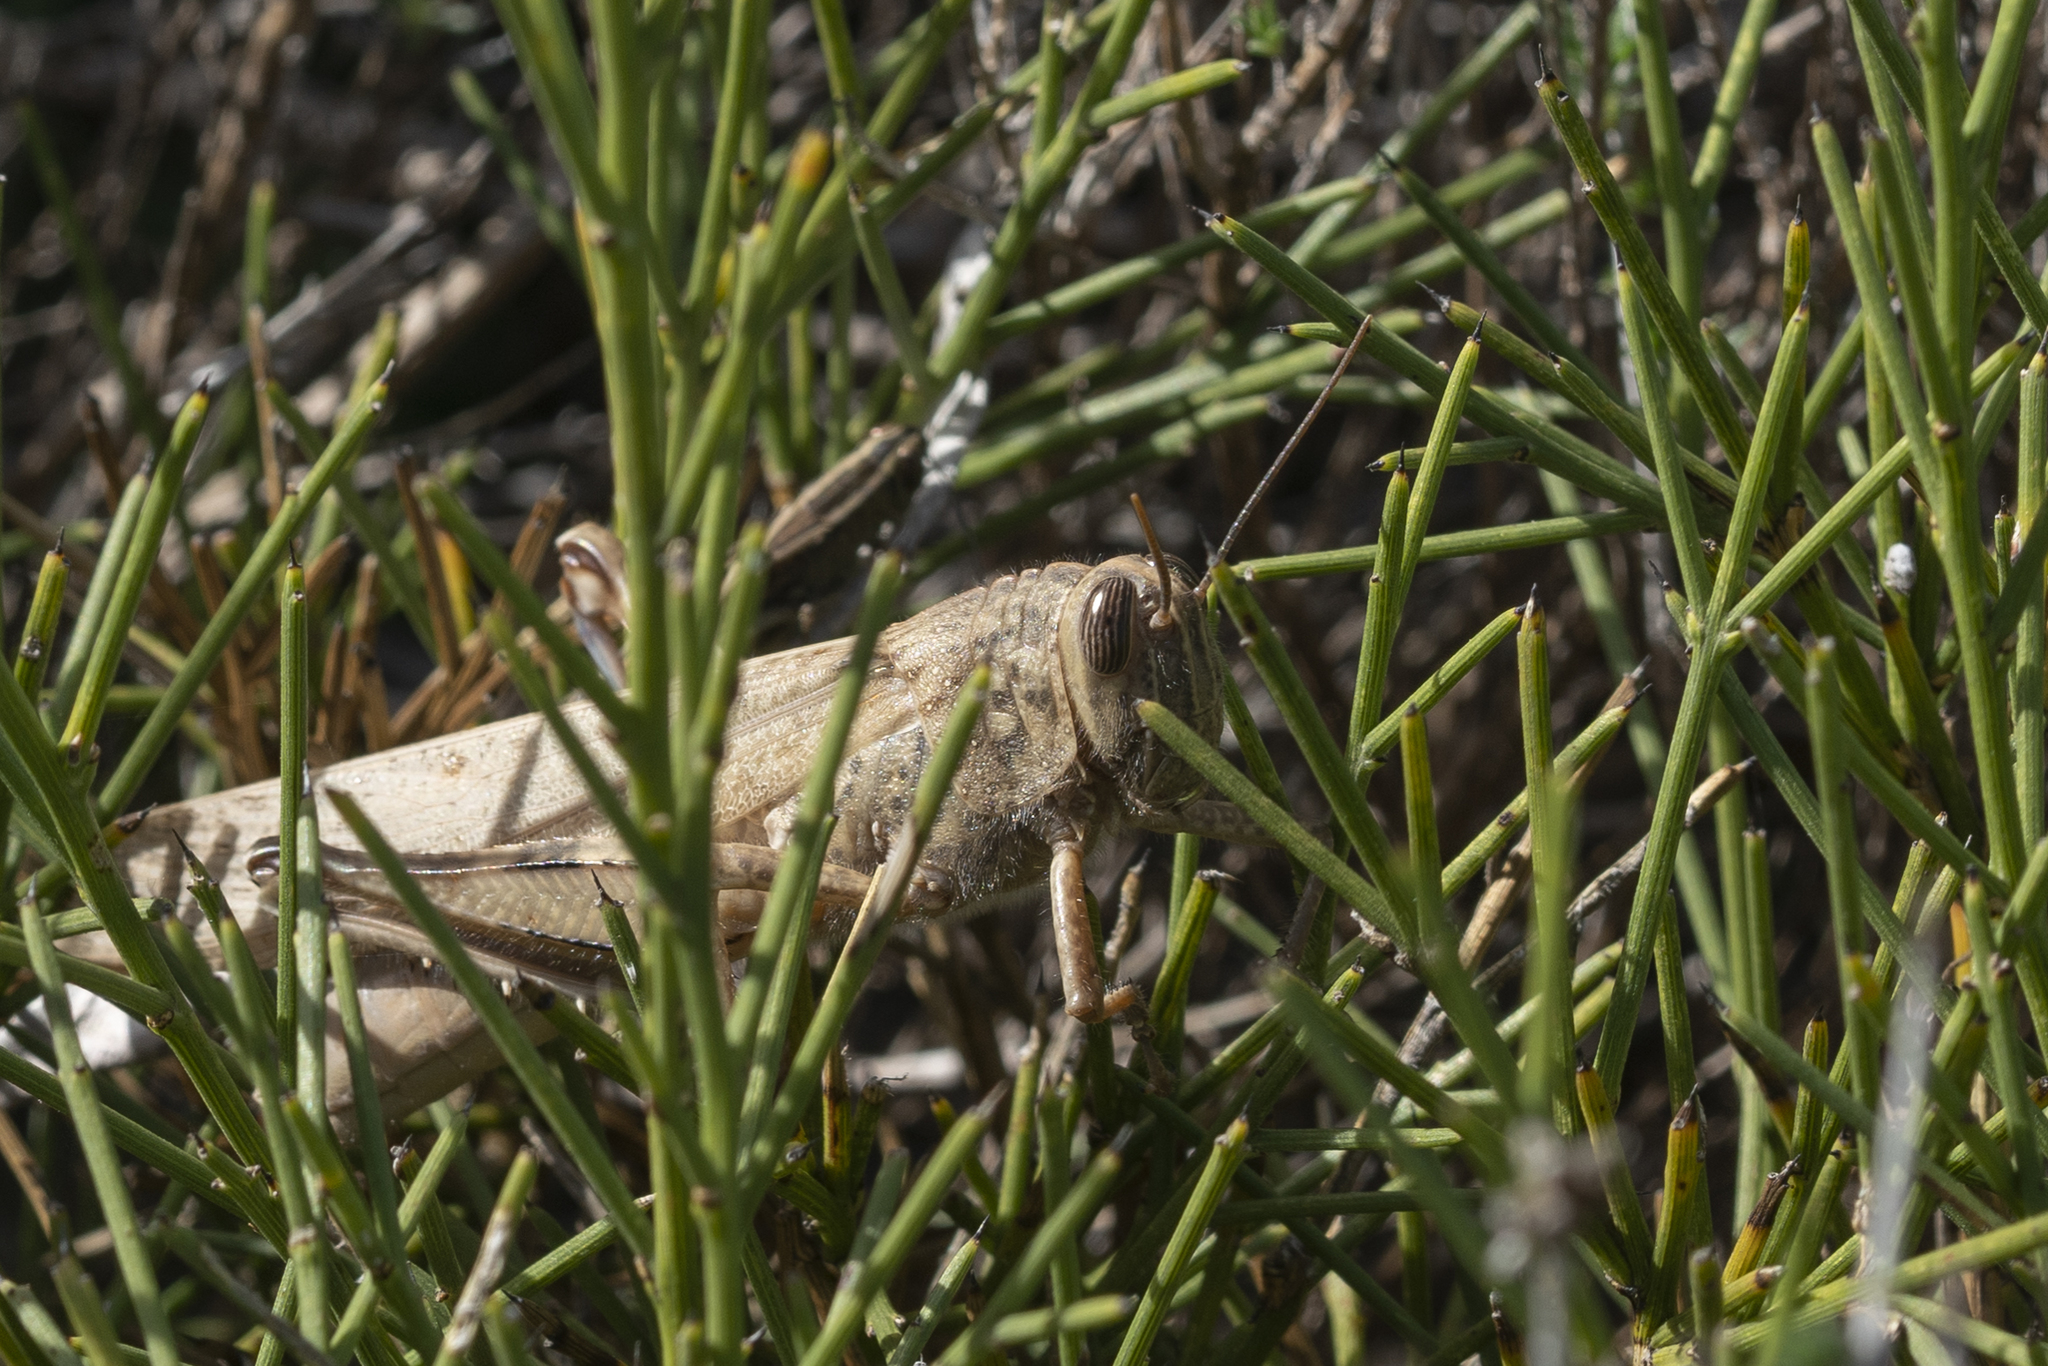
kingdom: Animalia
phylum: Arthropoda
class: Insecta
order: Orthoptera
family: Acrididae
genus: Anacridium
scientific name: Anacridium aegyptium
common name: Egyptian grasshopper
